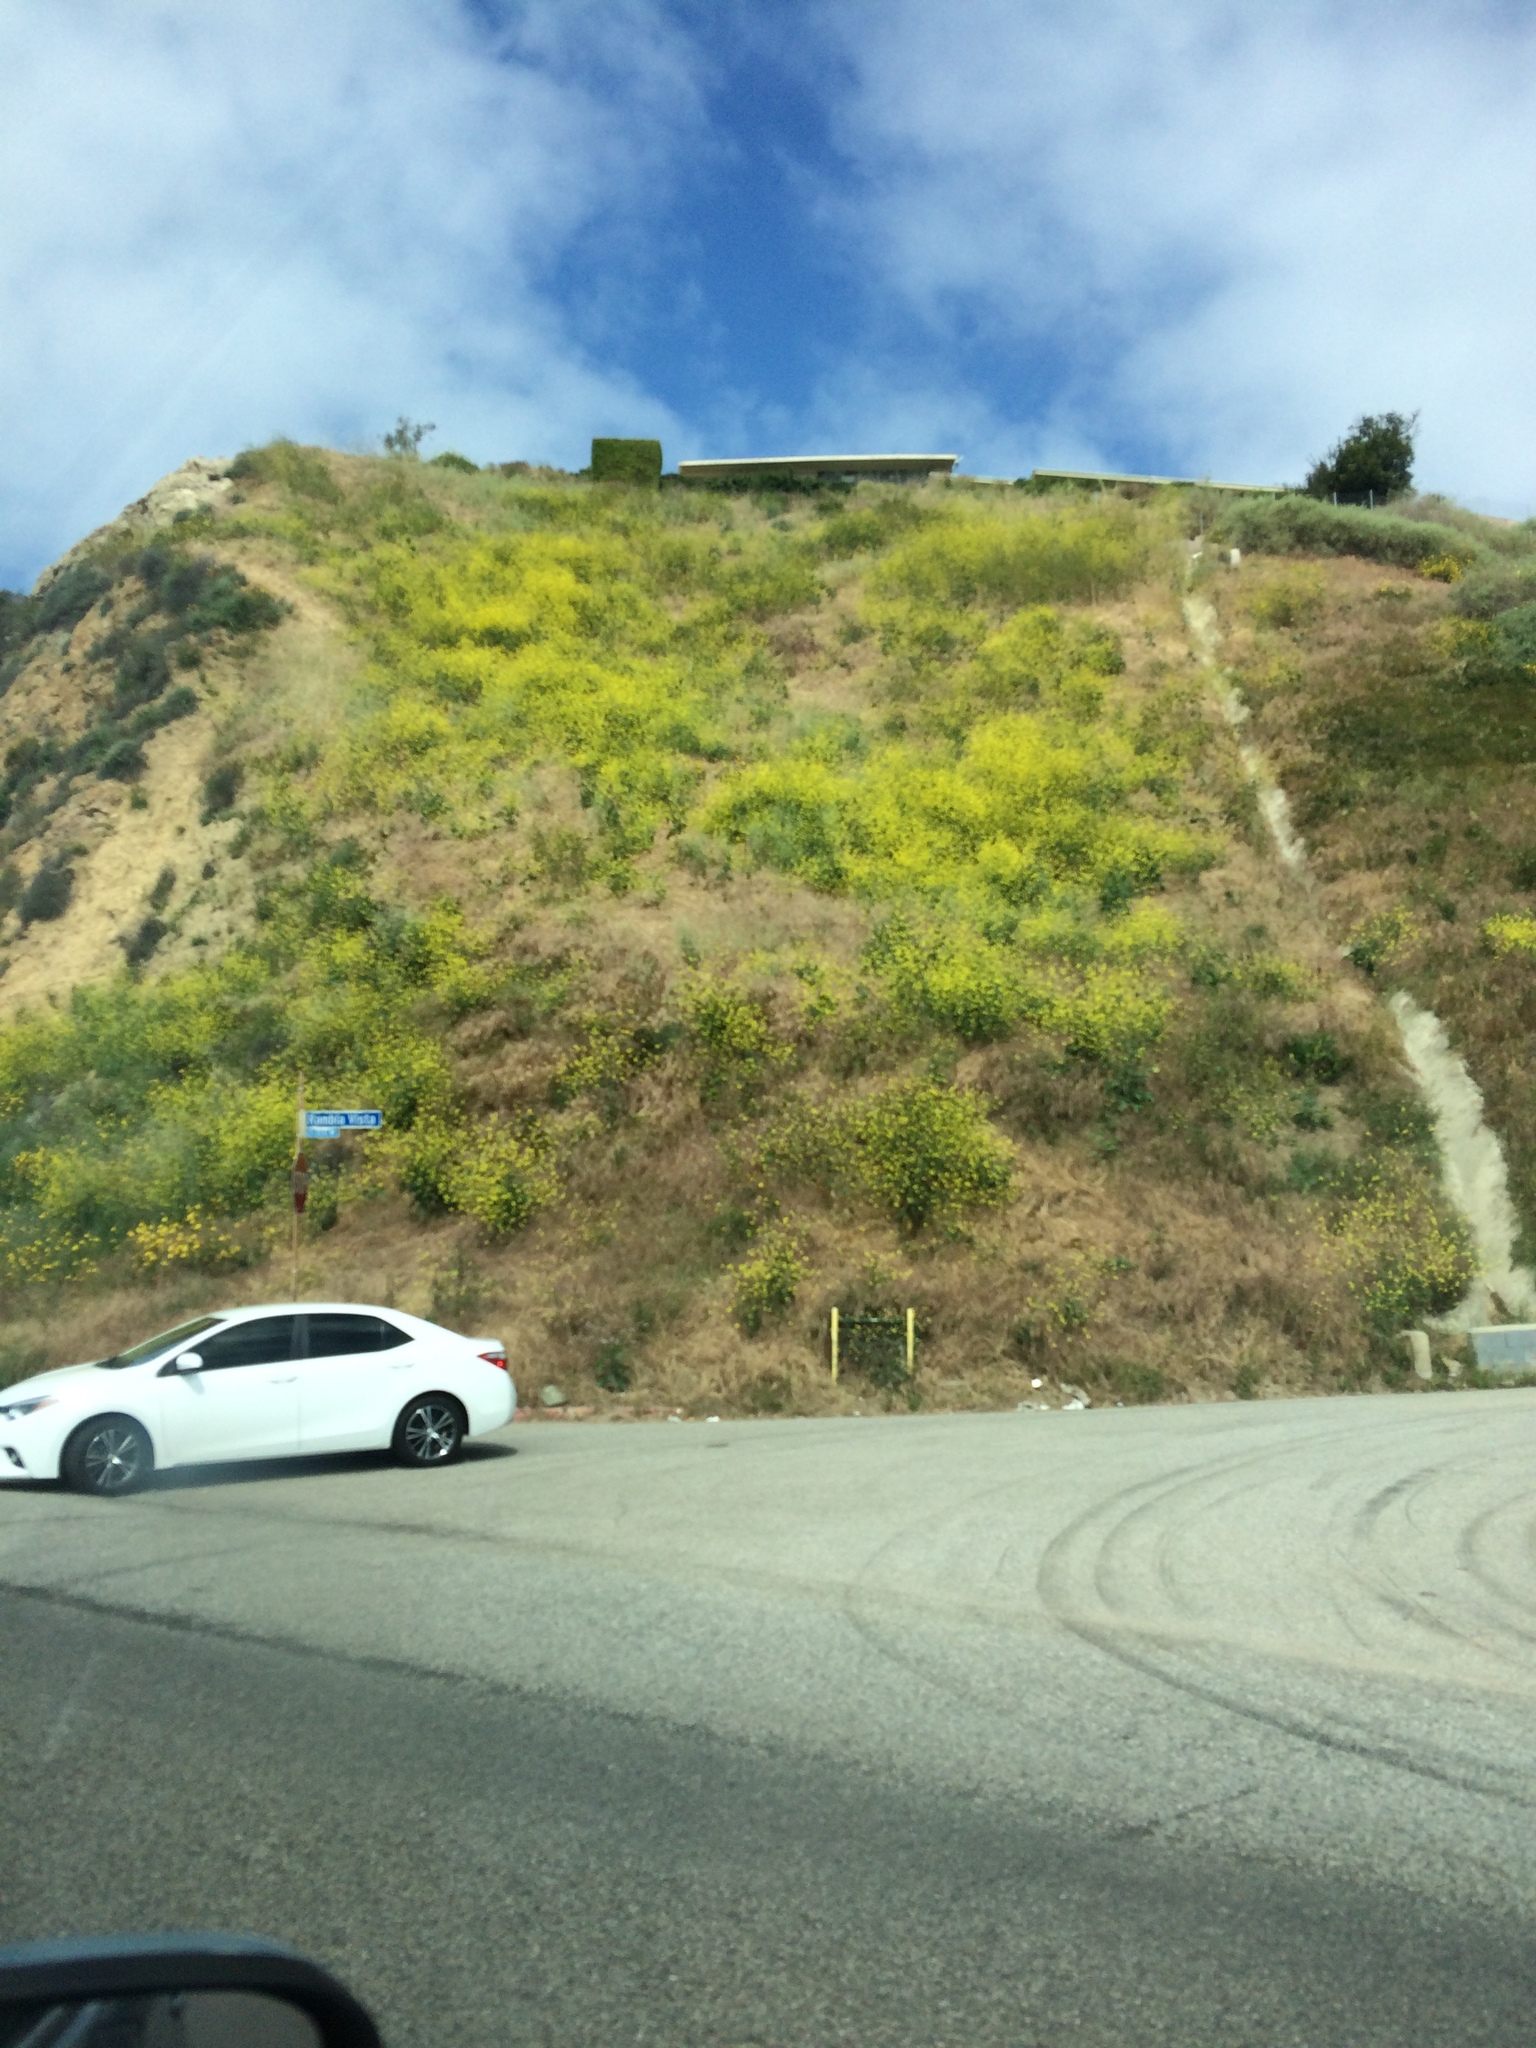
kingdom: Plantae
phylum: Tracheophyta
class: Magnoliopsida
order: Brassicales
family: Brassicaceae
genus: Brassica
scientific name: Brassica nigra
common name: Black mustard
